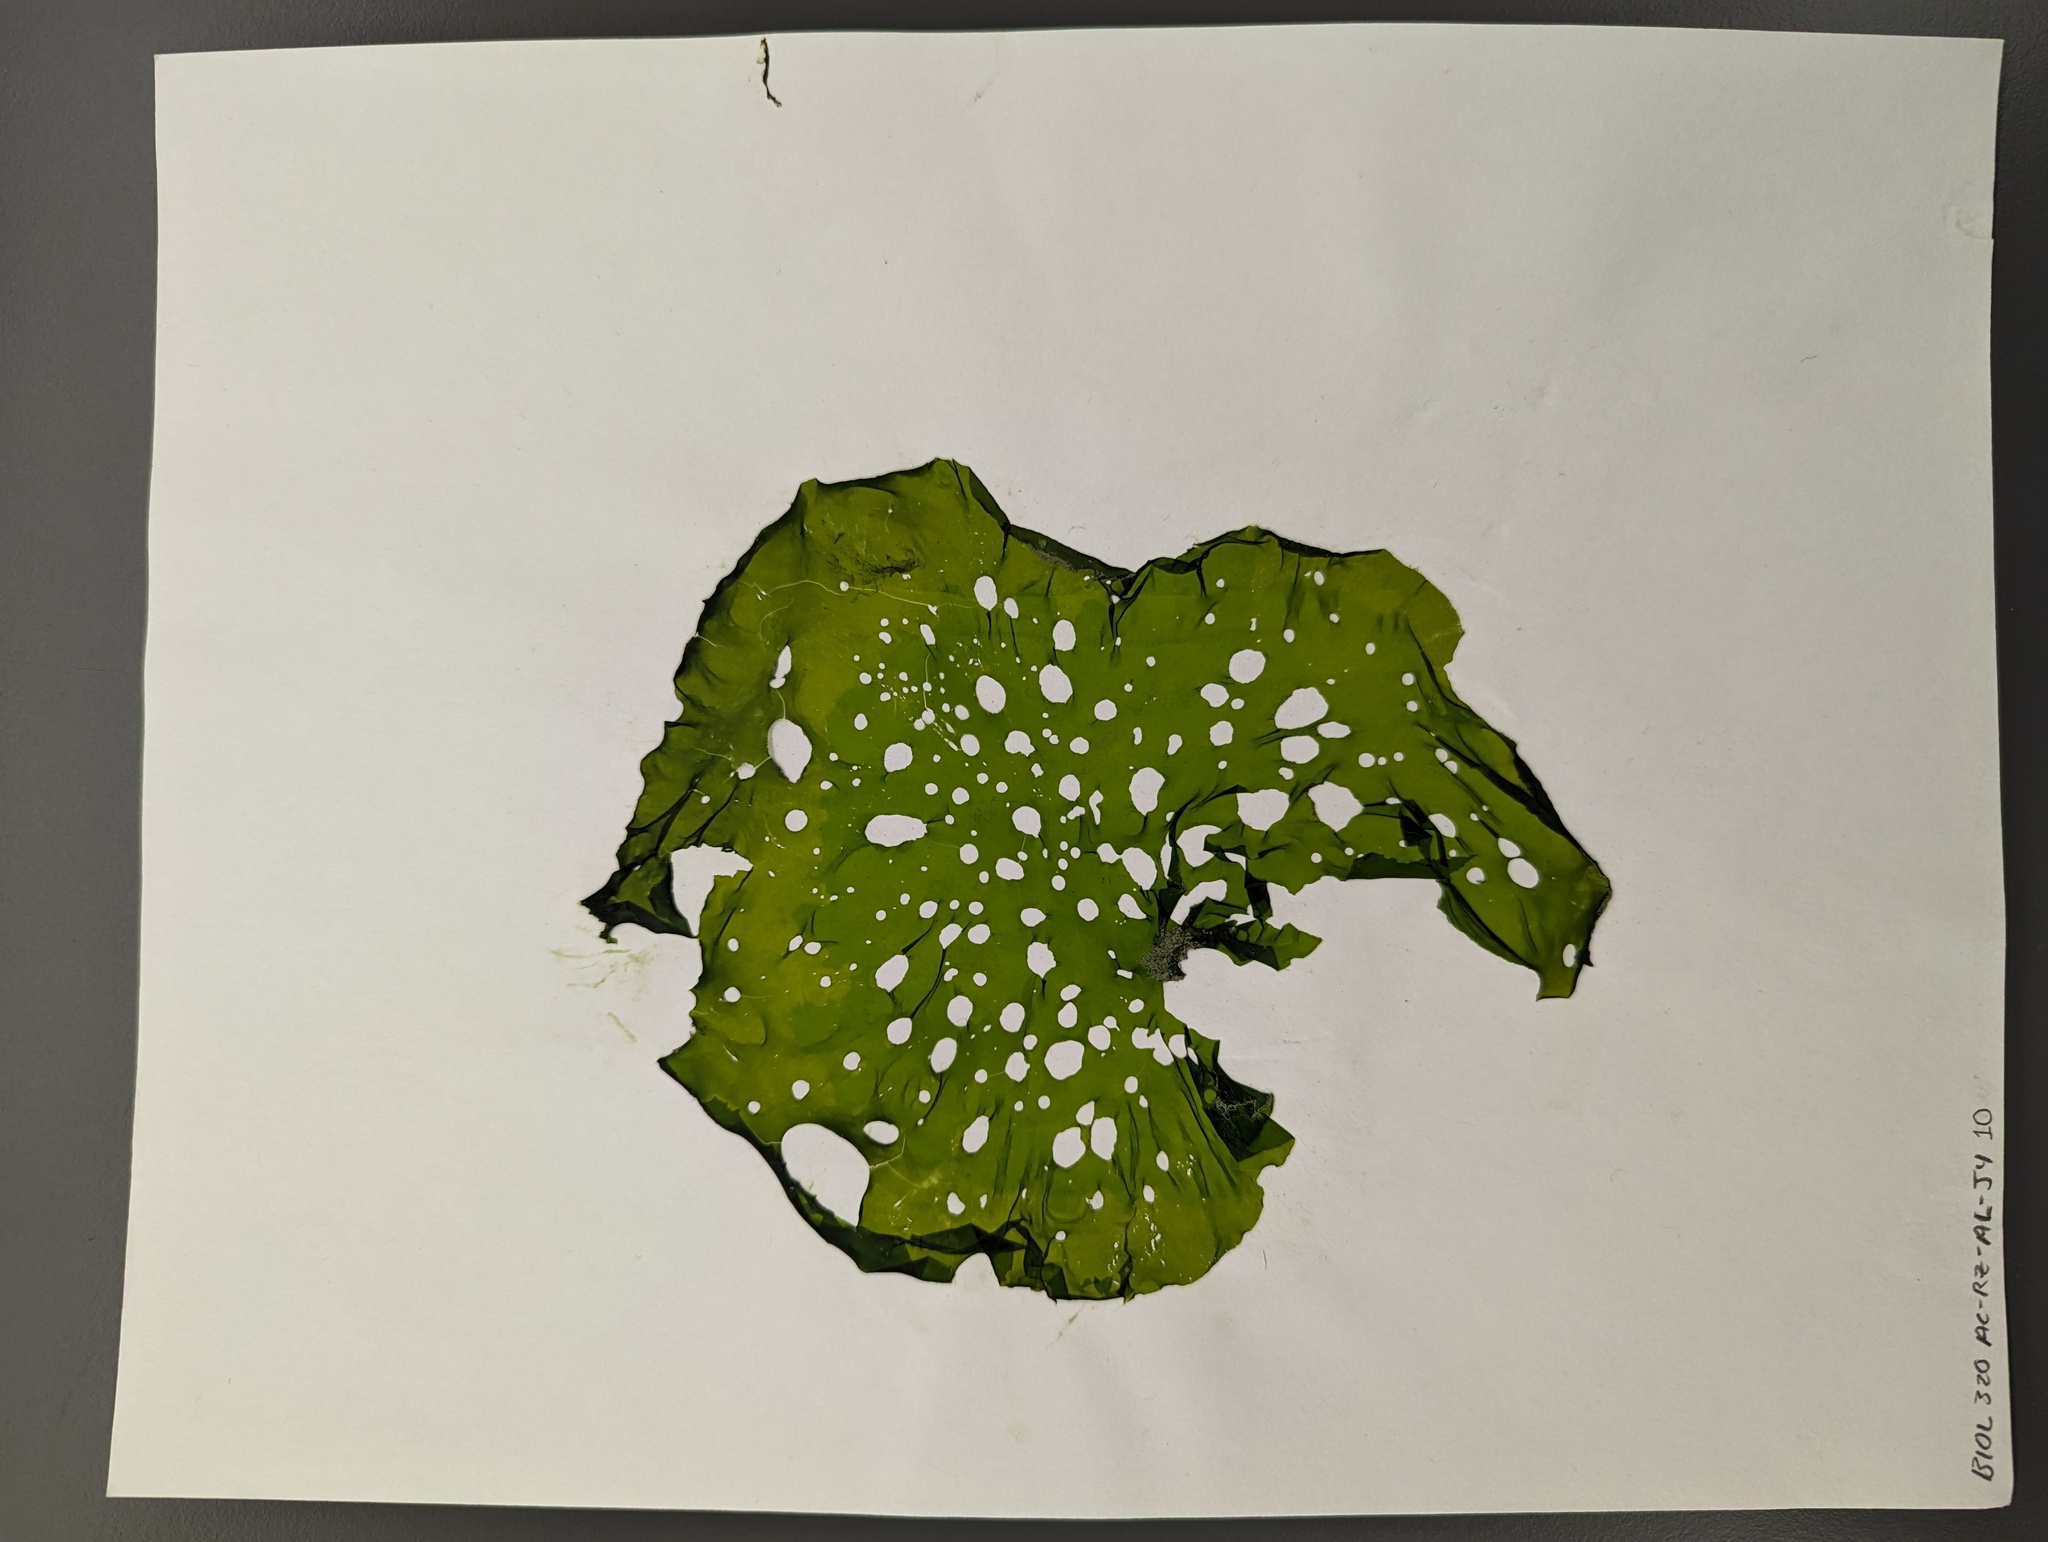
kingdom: Plantae
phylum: Chlorophyta
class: Ulvophyceae
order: Ulvales
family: Ulvaceae
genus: Ulva
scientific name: Ulva fenestrata
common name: Sea lettuce
